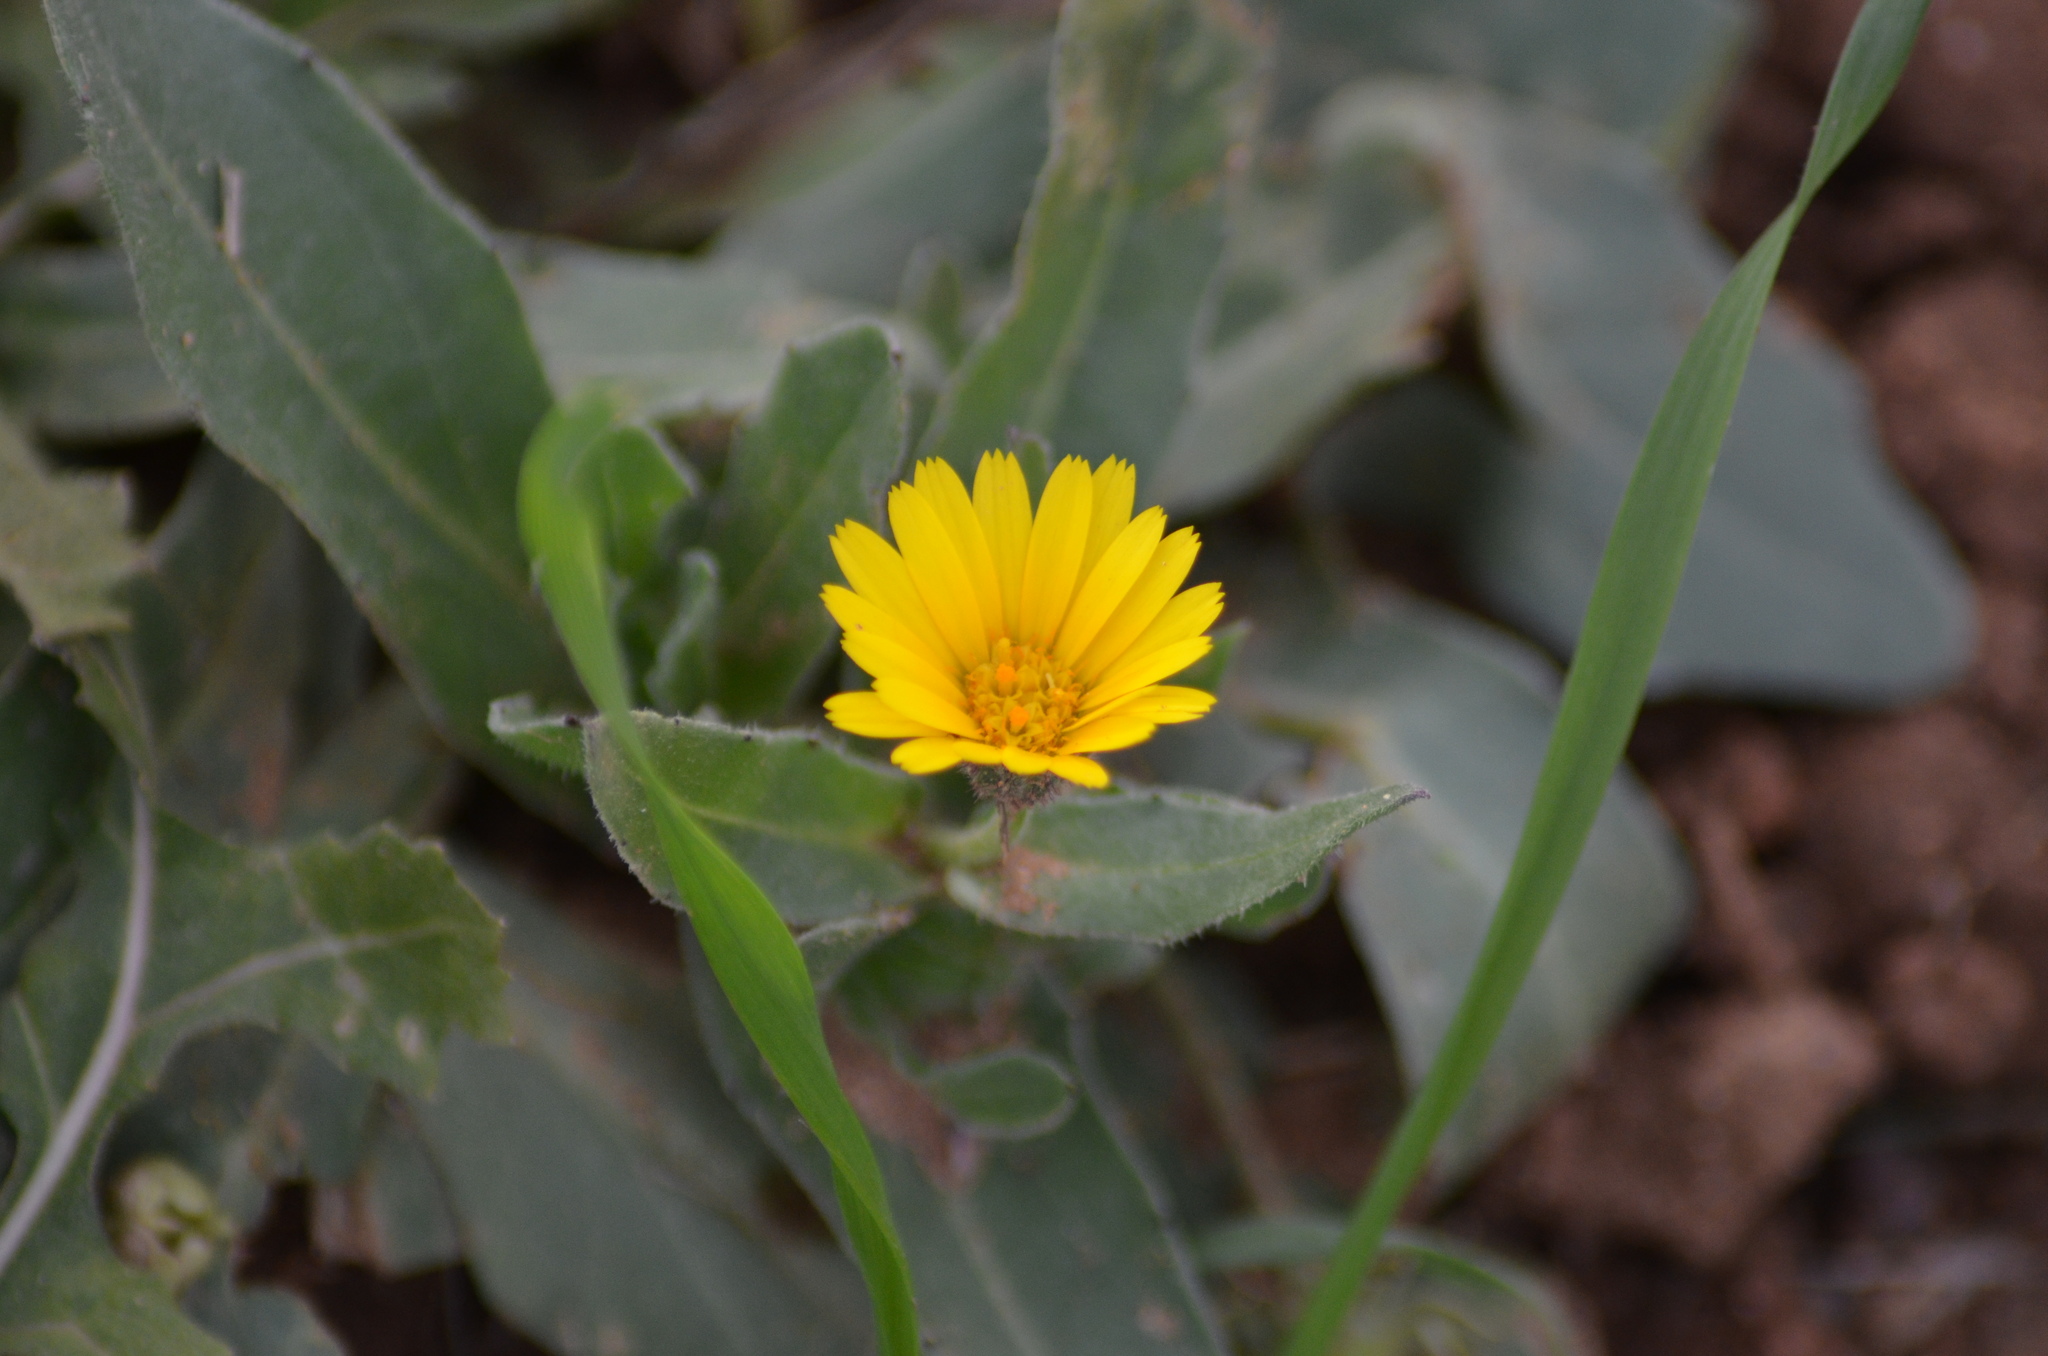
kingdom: Plantae
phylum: Tracheophyta
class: Magnoliopsida
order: Asterales
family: Asteraceae
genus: Calendula
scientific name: Calendula arvensis
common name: Field marigold
